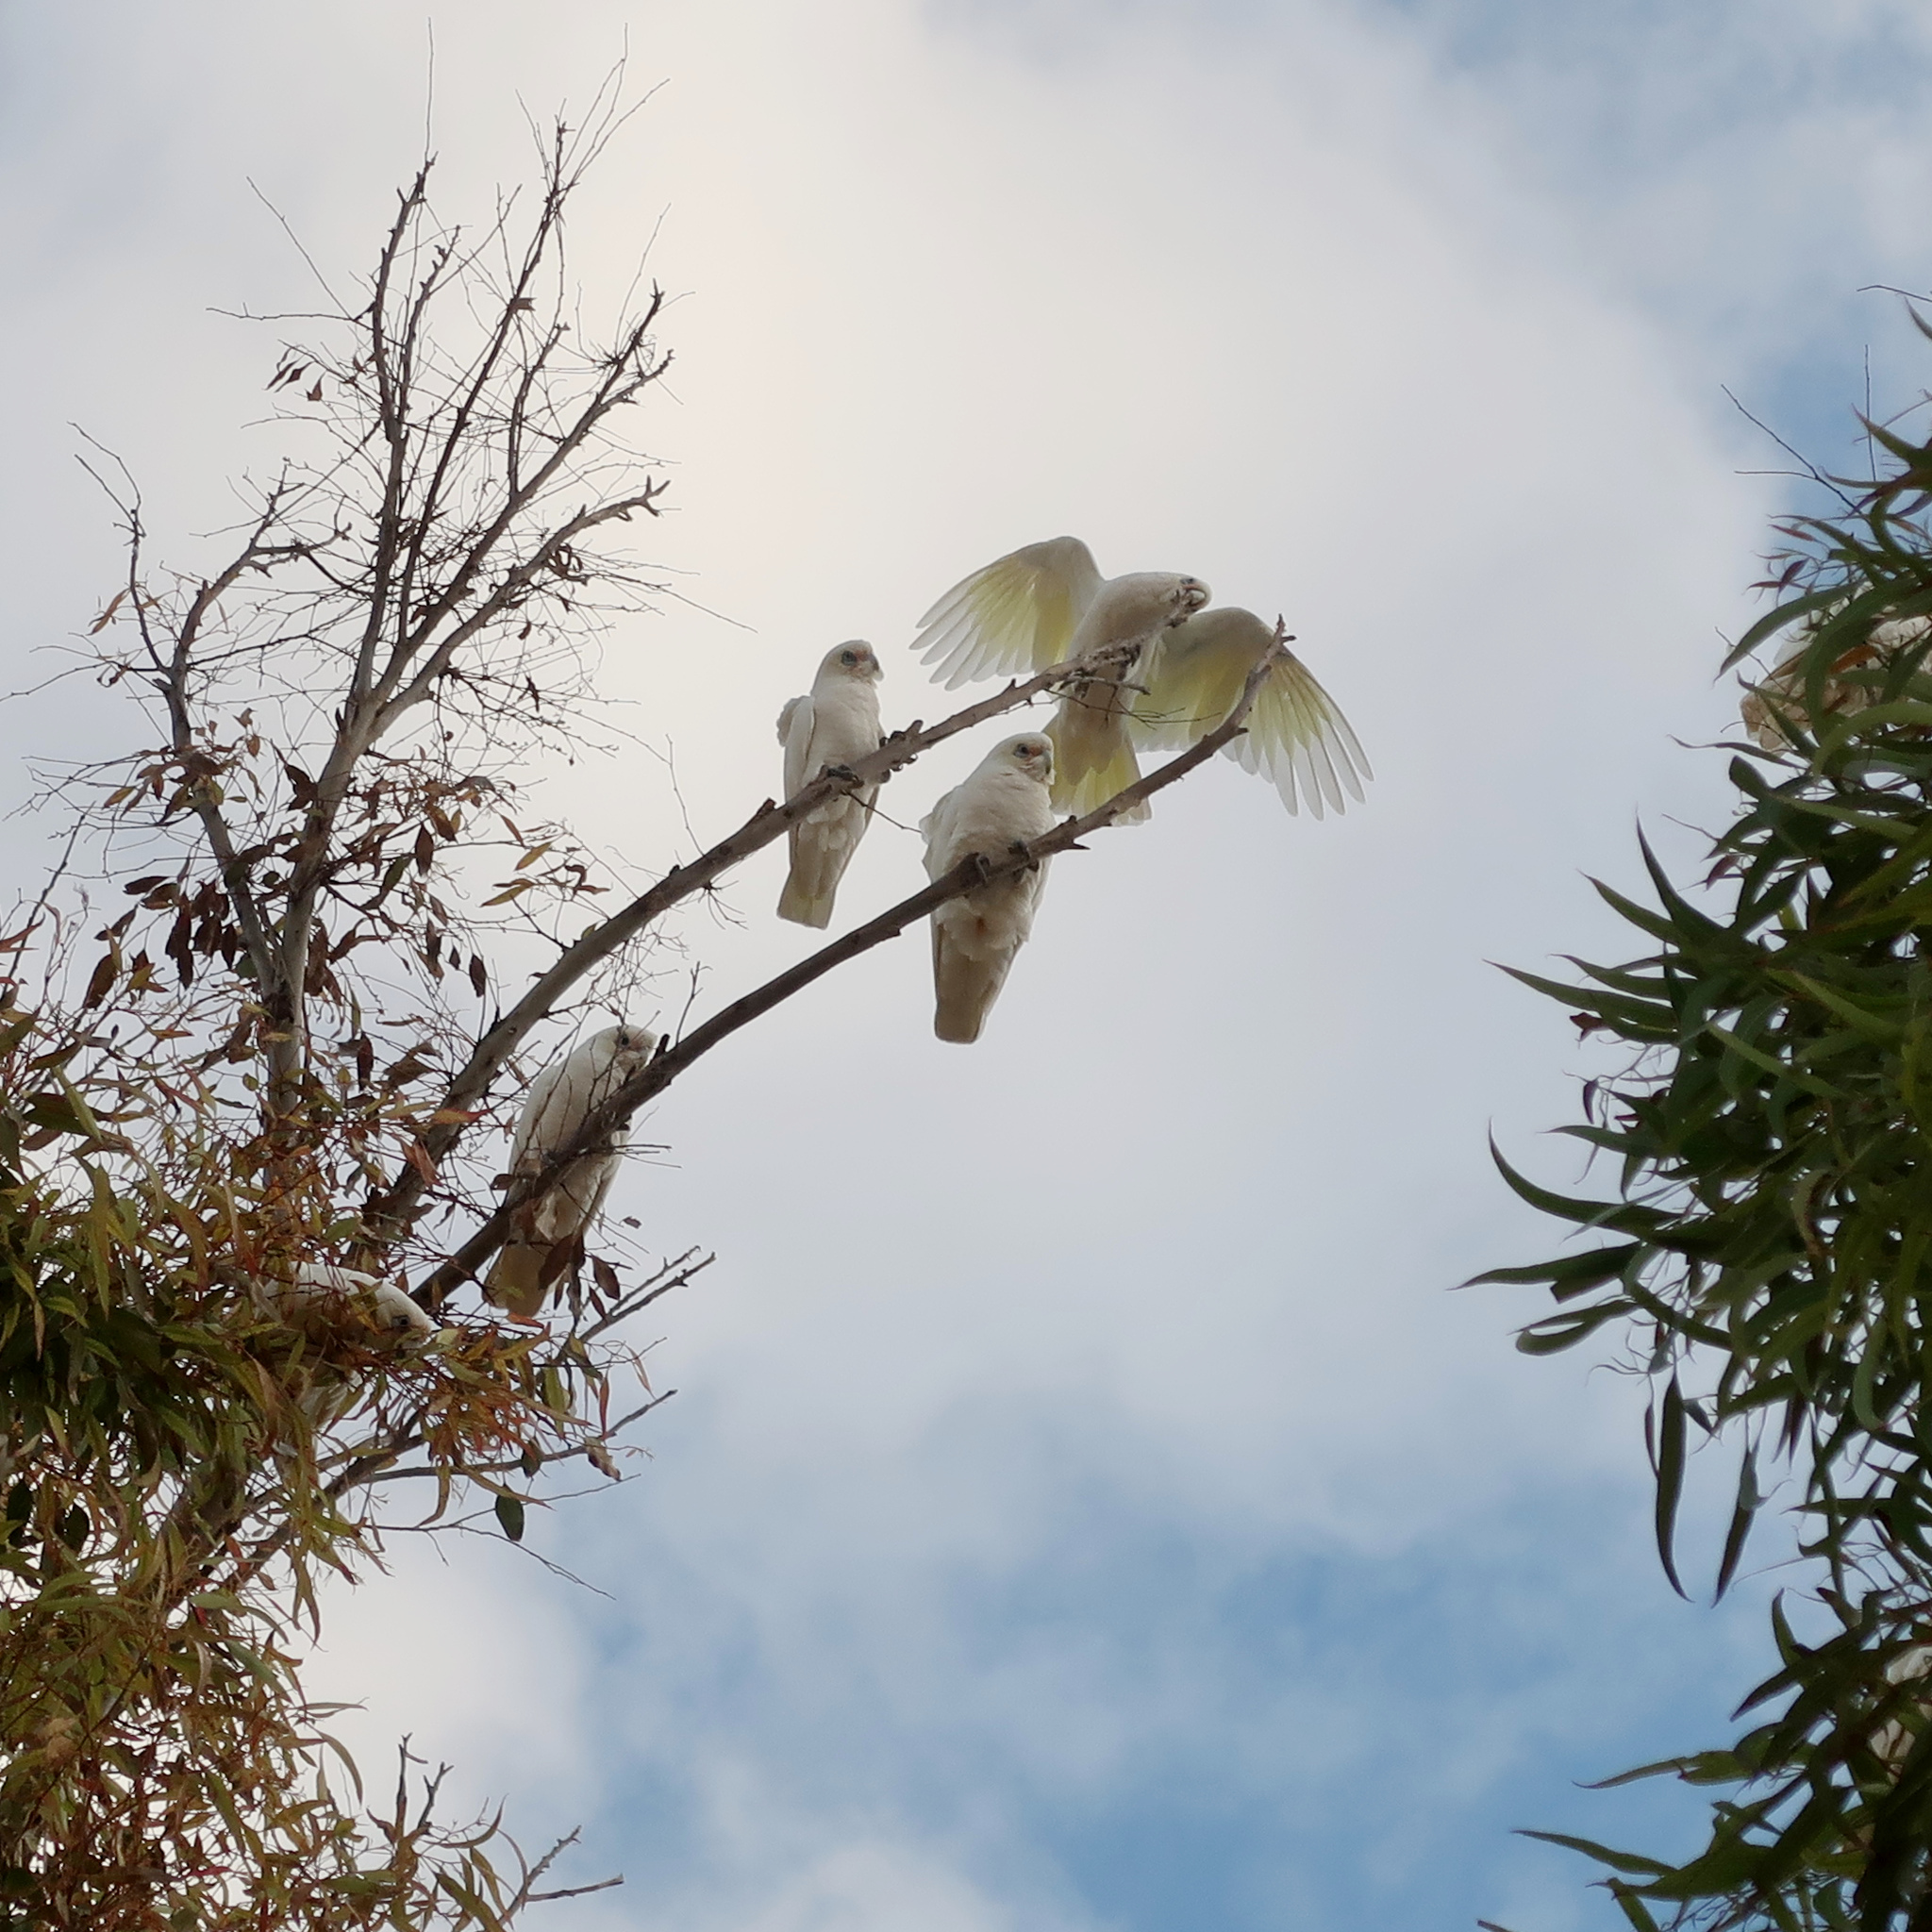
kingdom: Animalia
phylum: Chordata
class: Aves
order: Psittaciformes
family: Psittacidae
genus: Cacatua
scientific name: Cacatua sanguinea
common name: Little corella
